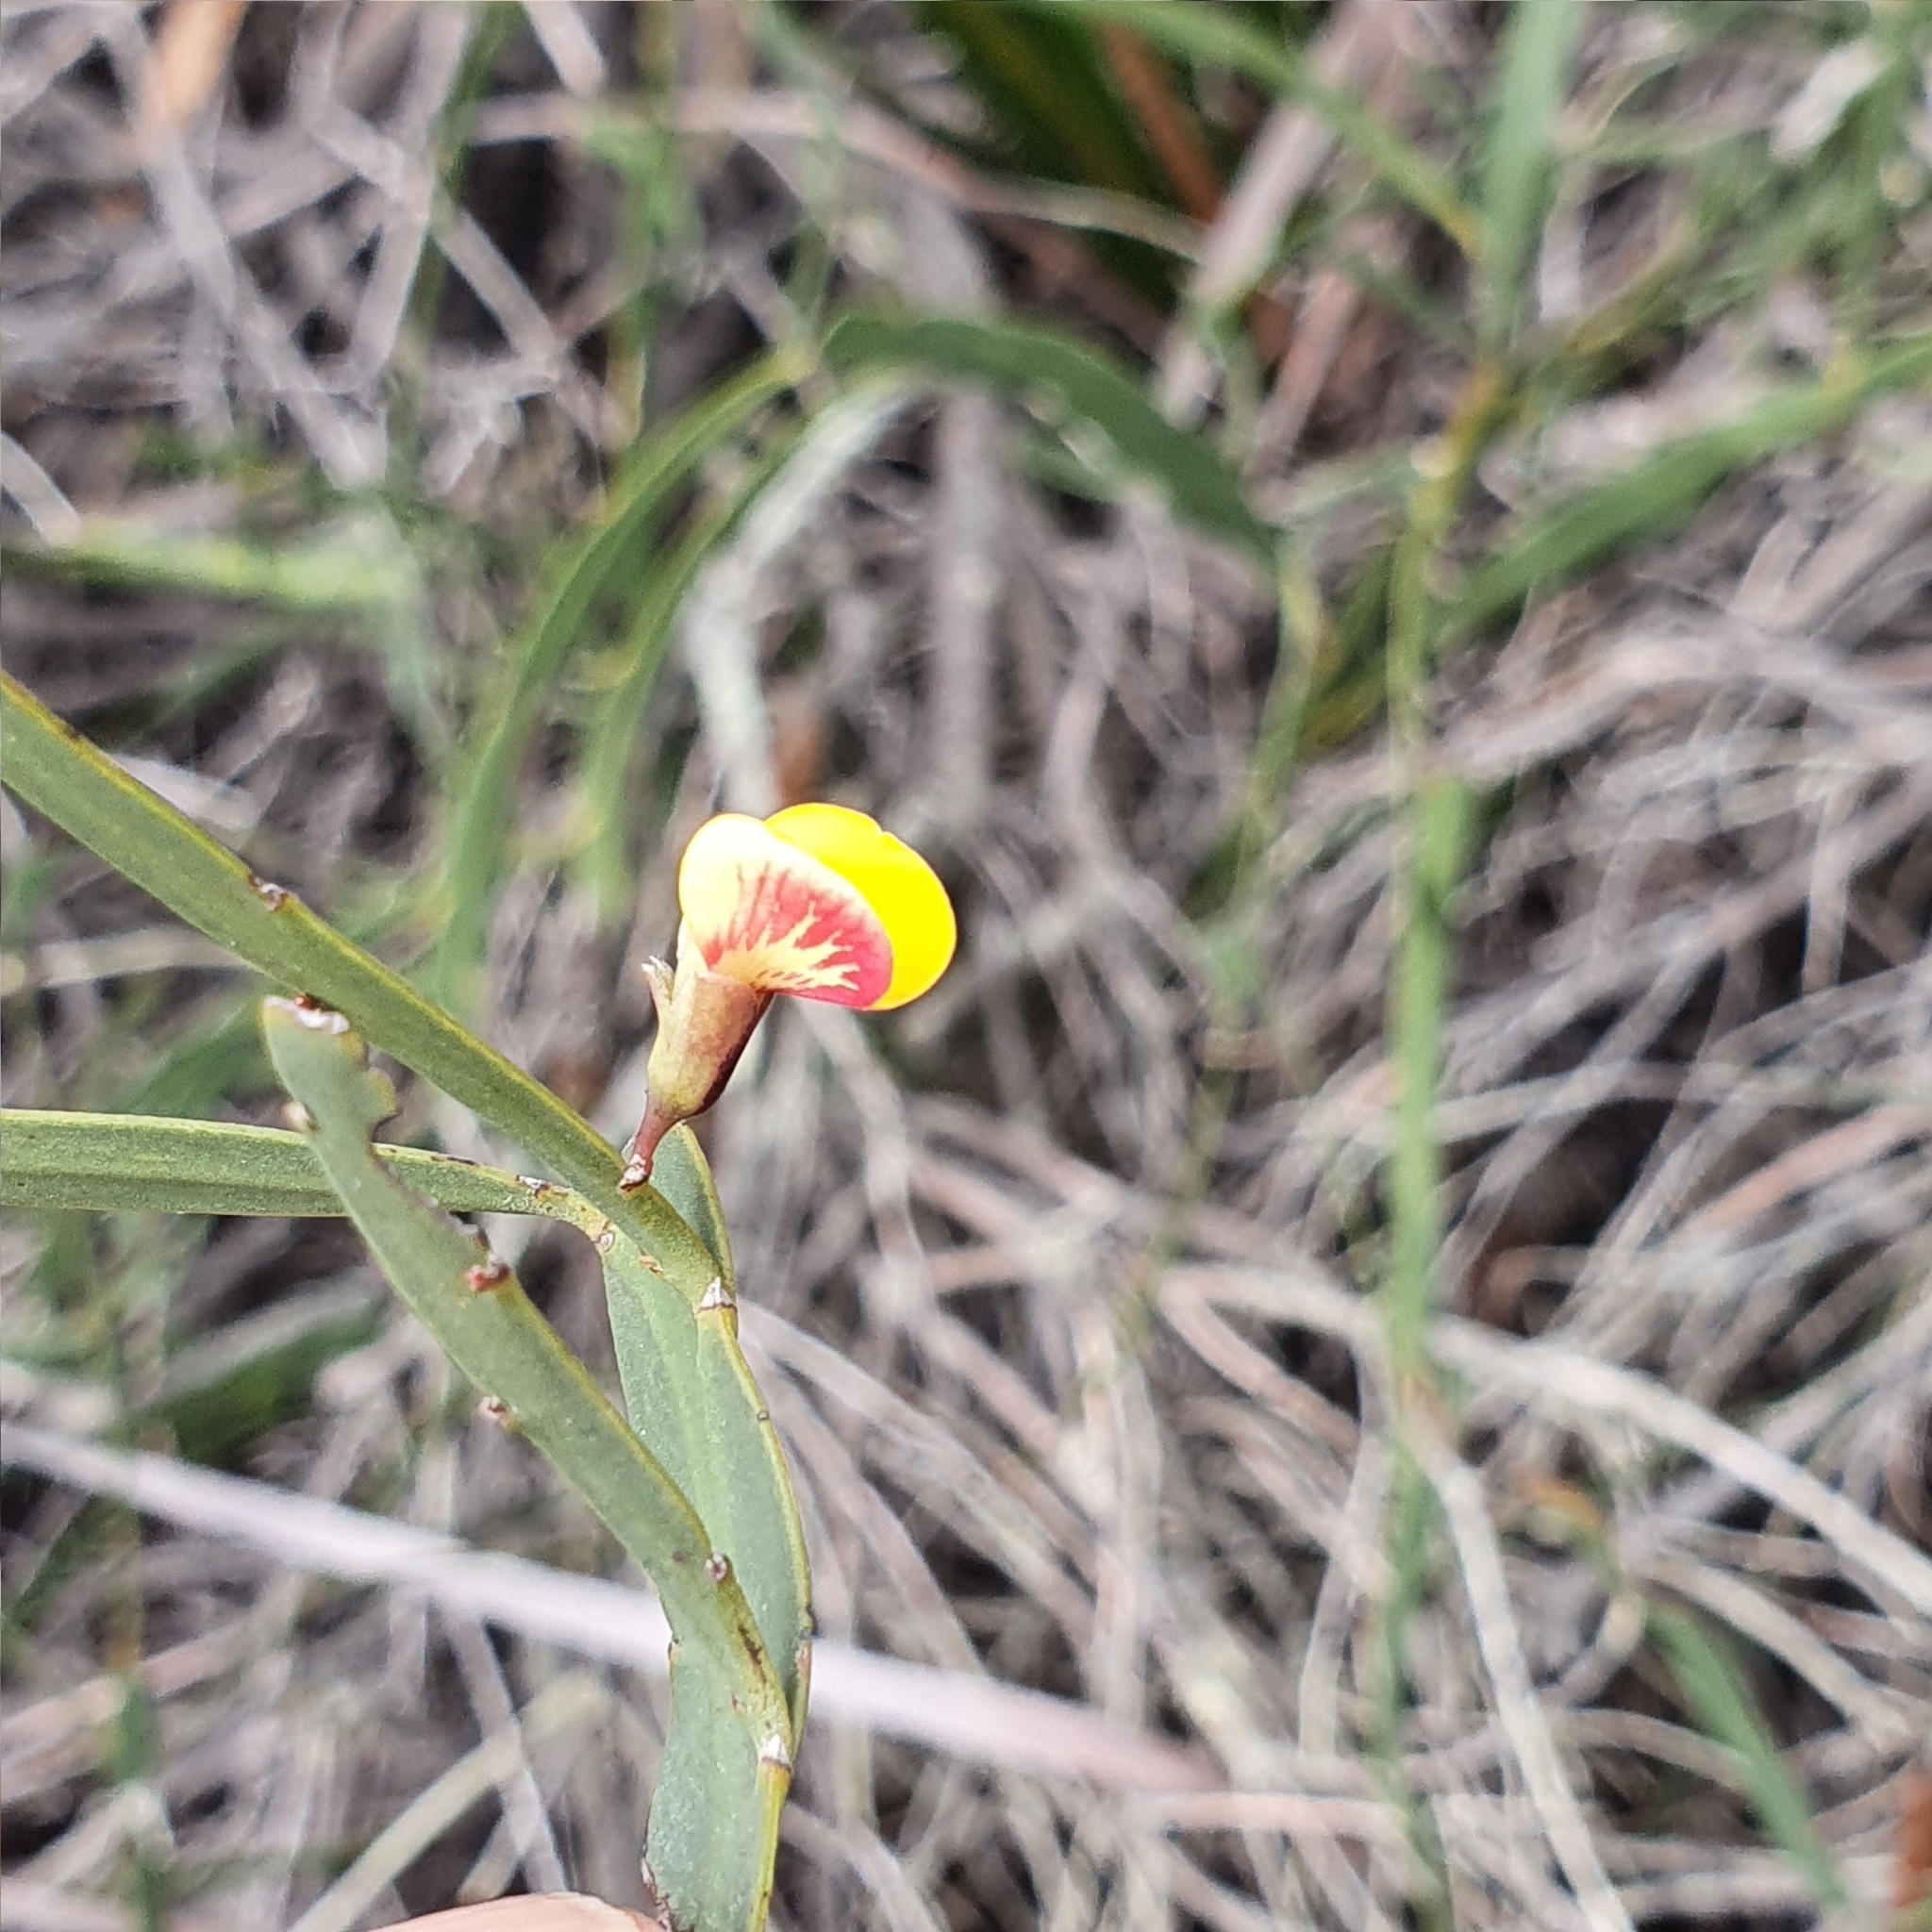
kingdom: Plantae
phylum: Tracheophyta
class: Magnoliopsida
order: Fabales
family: Fabaceae
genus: Bossiaea
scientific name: Bossiaea ensata
